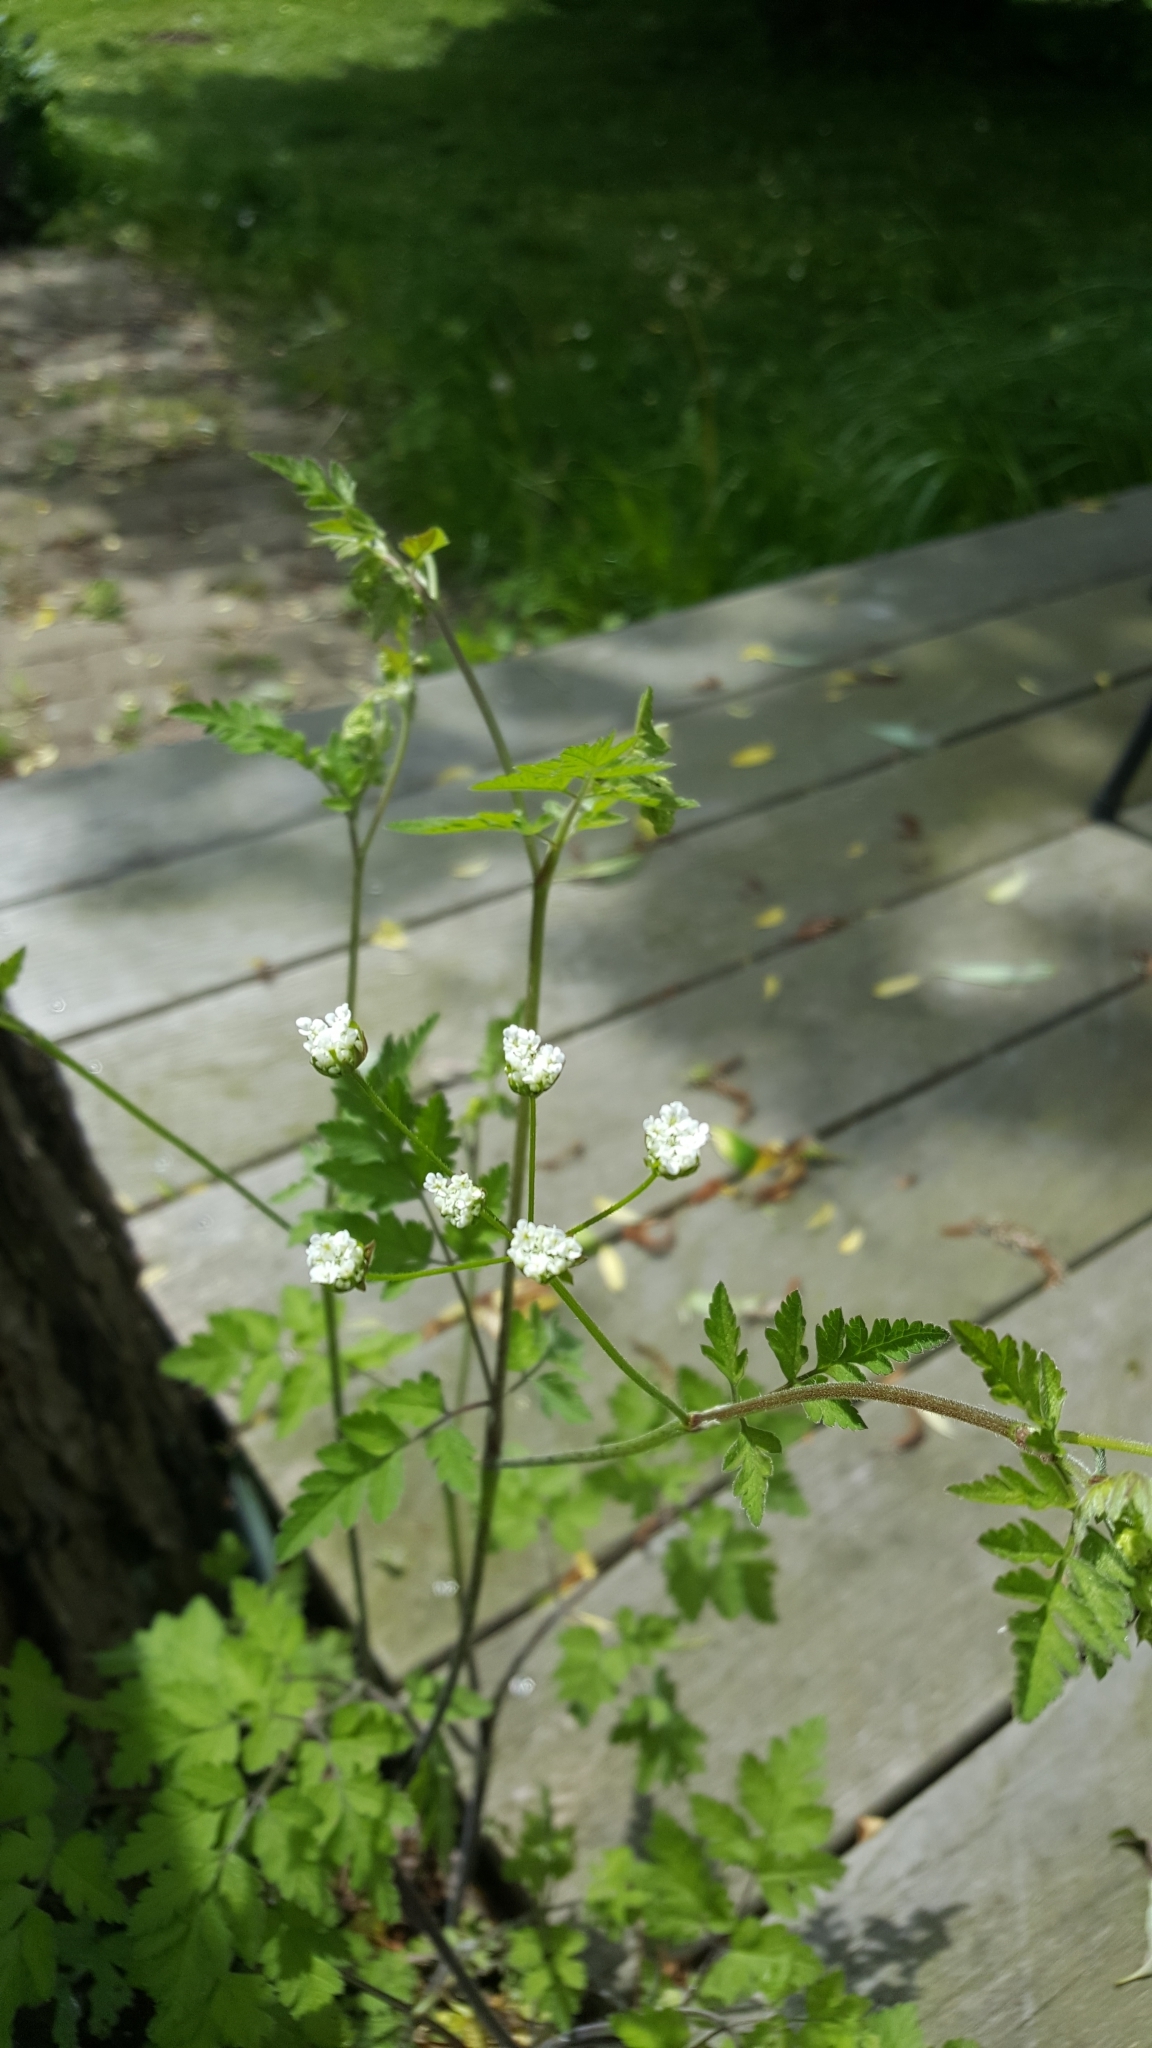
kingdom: Plantae
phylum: Tracheophyta
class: Magnoliopsida
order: Apiales
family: Apiaceae
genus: Chaerophyllum
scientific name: Chaerophyllum temulum
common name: Rough chervil
